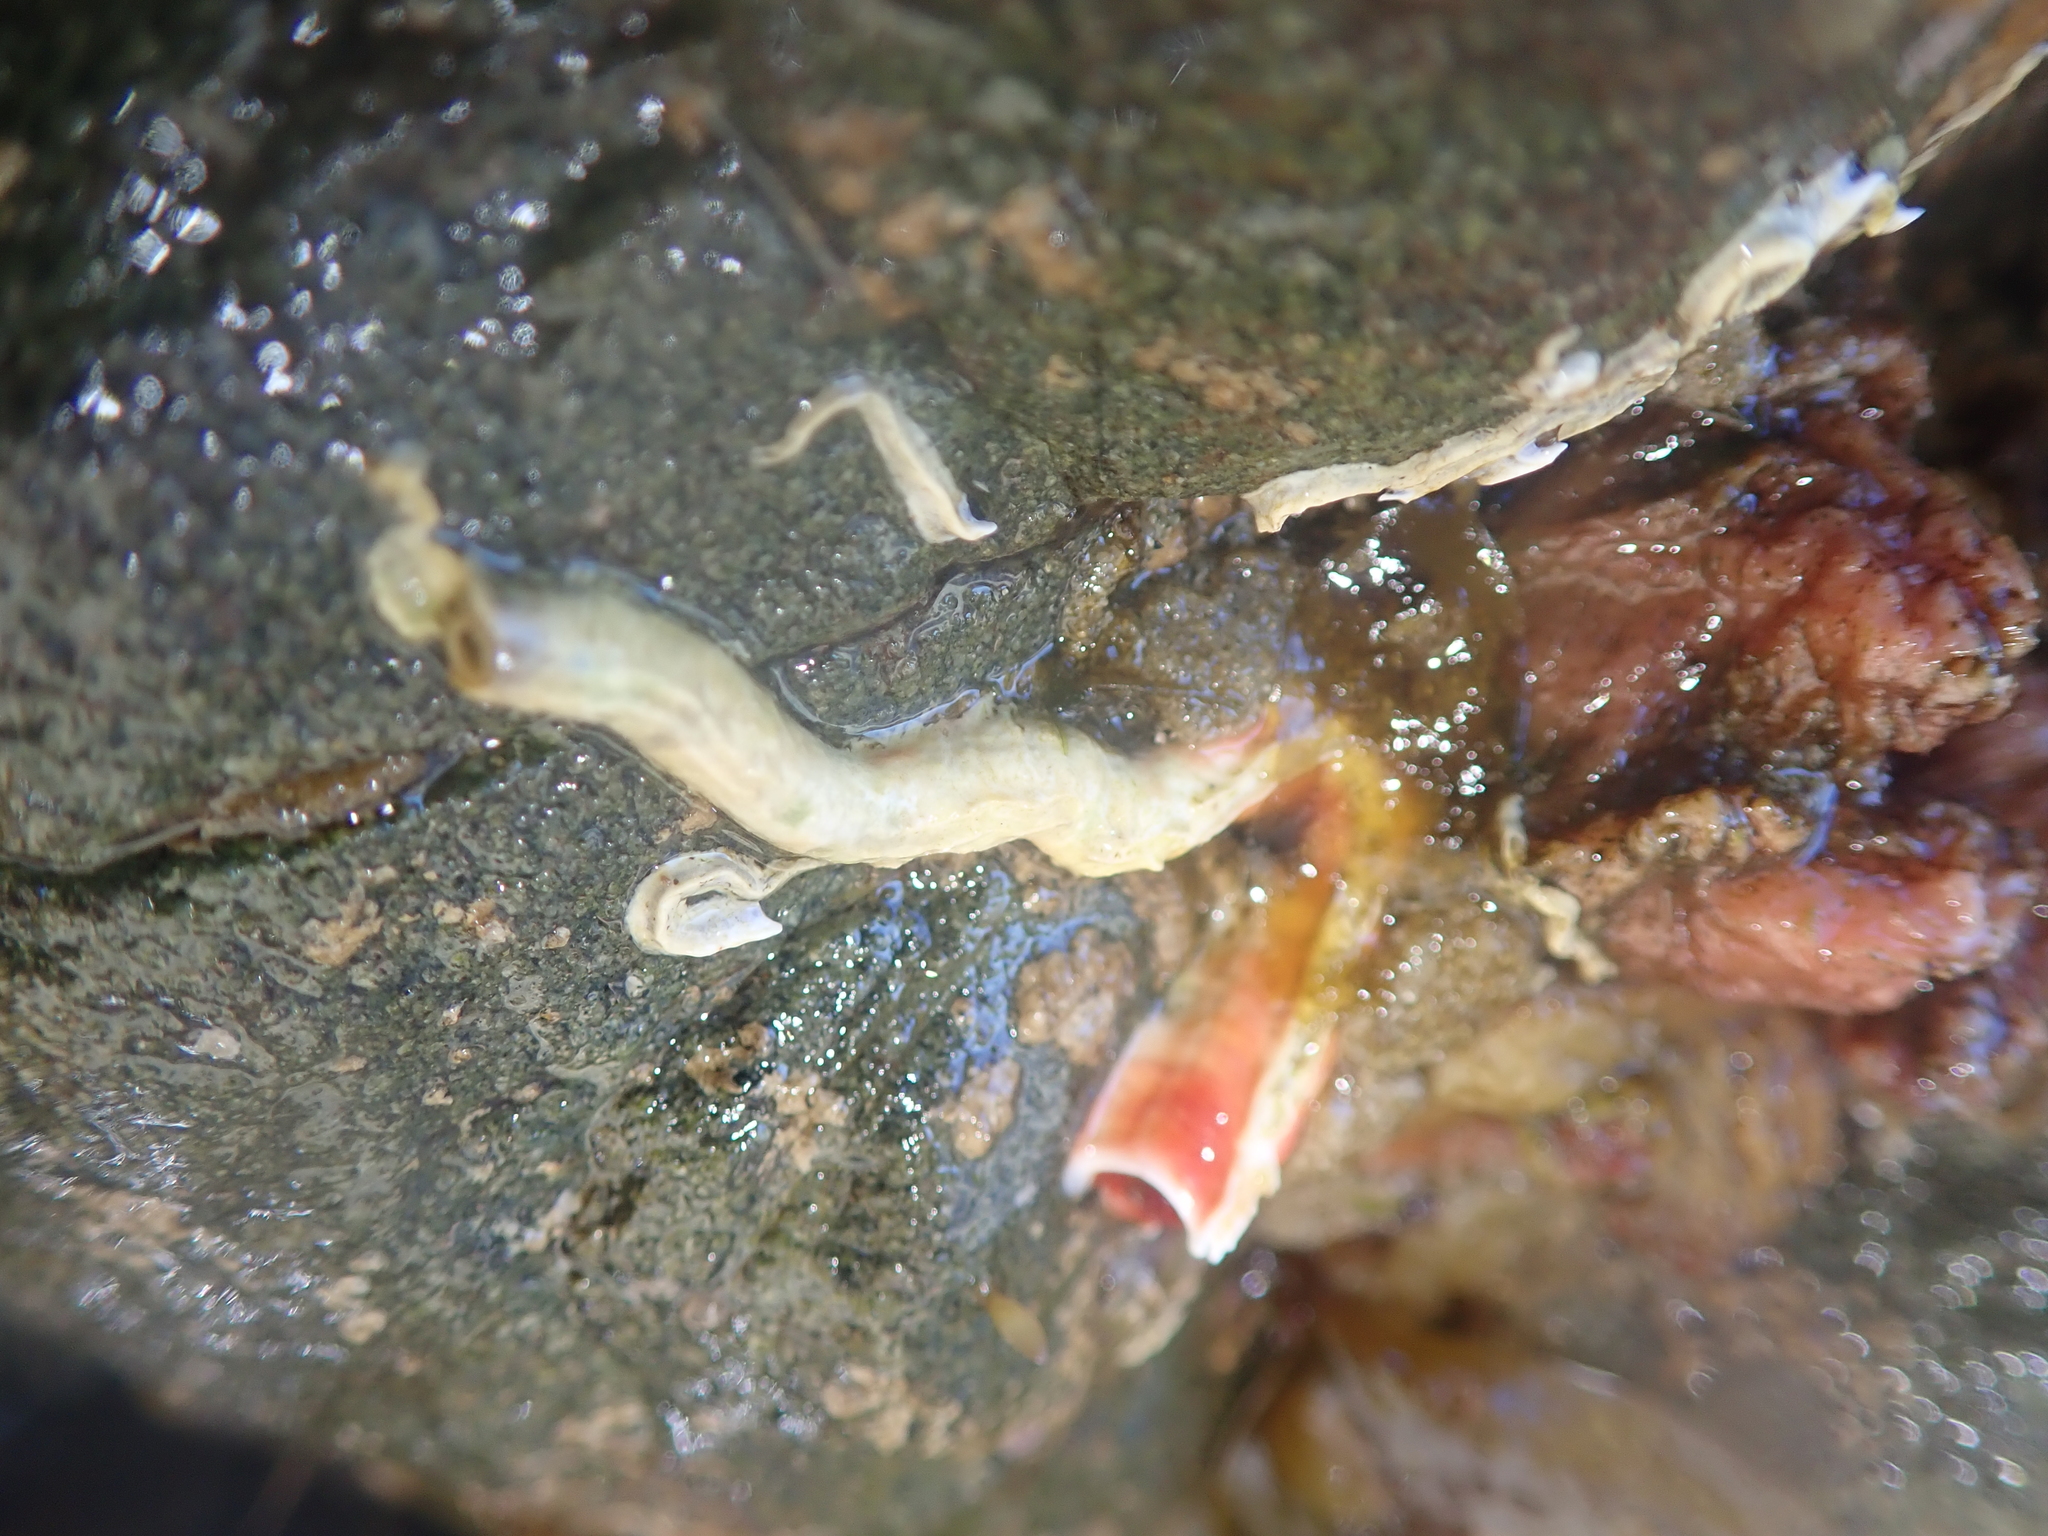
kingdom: Animalia
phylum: Annelida
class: Polychaeta
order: Sabellida
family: Serpulidae
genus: Galeolaria
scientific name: Galeolaria hystrix
